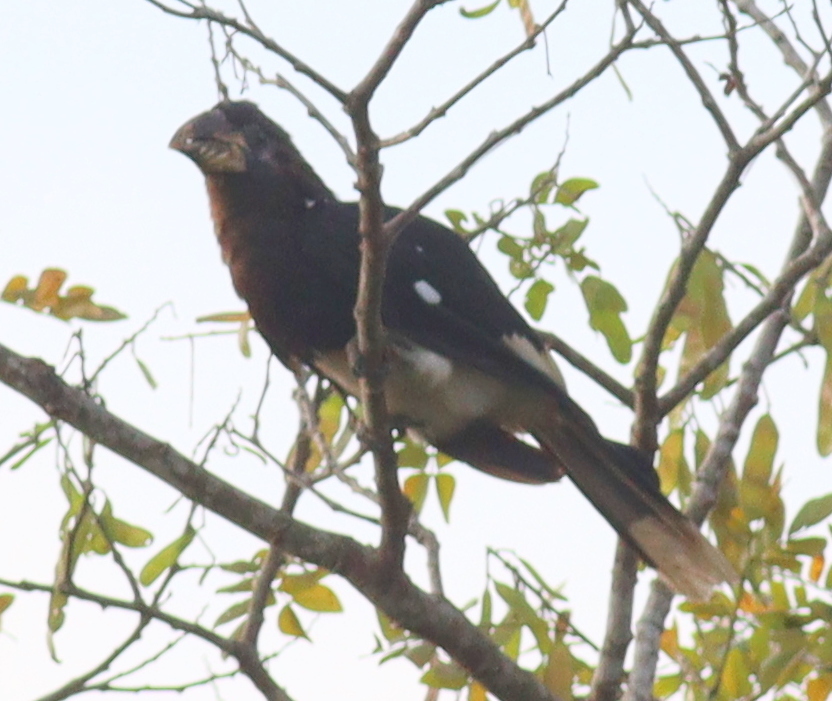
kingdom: Animalia
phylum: Chordata
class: Aves
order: Bucerotiformes
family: Bucerotidae
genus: Bycanistes
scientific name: Bycanistes fistulator
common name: Piping hornbill
